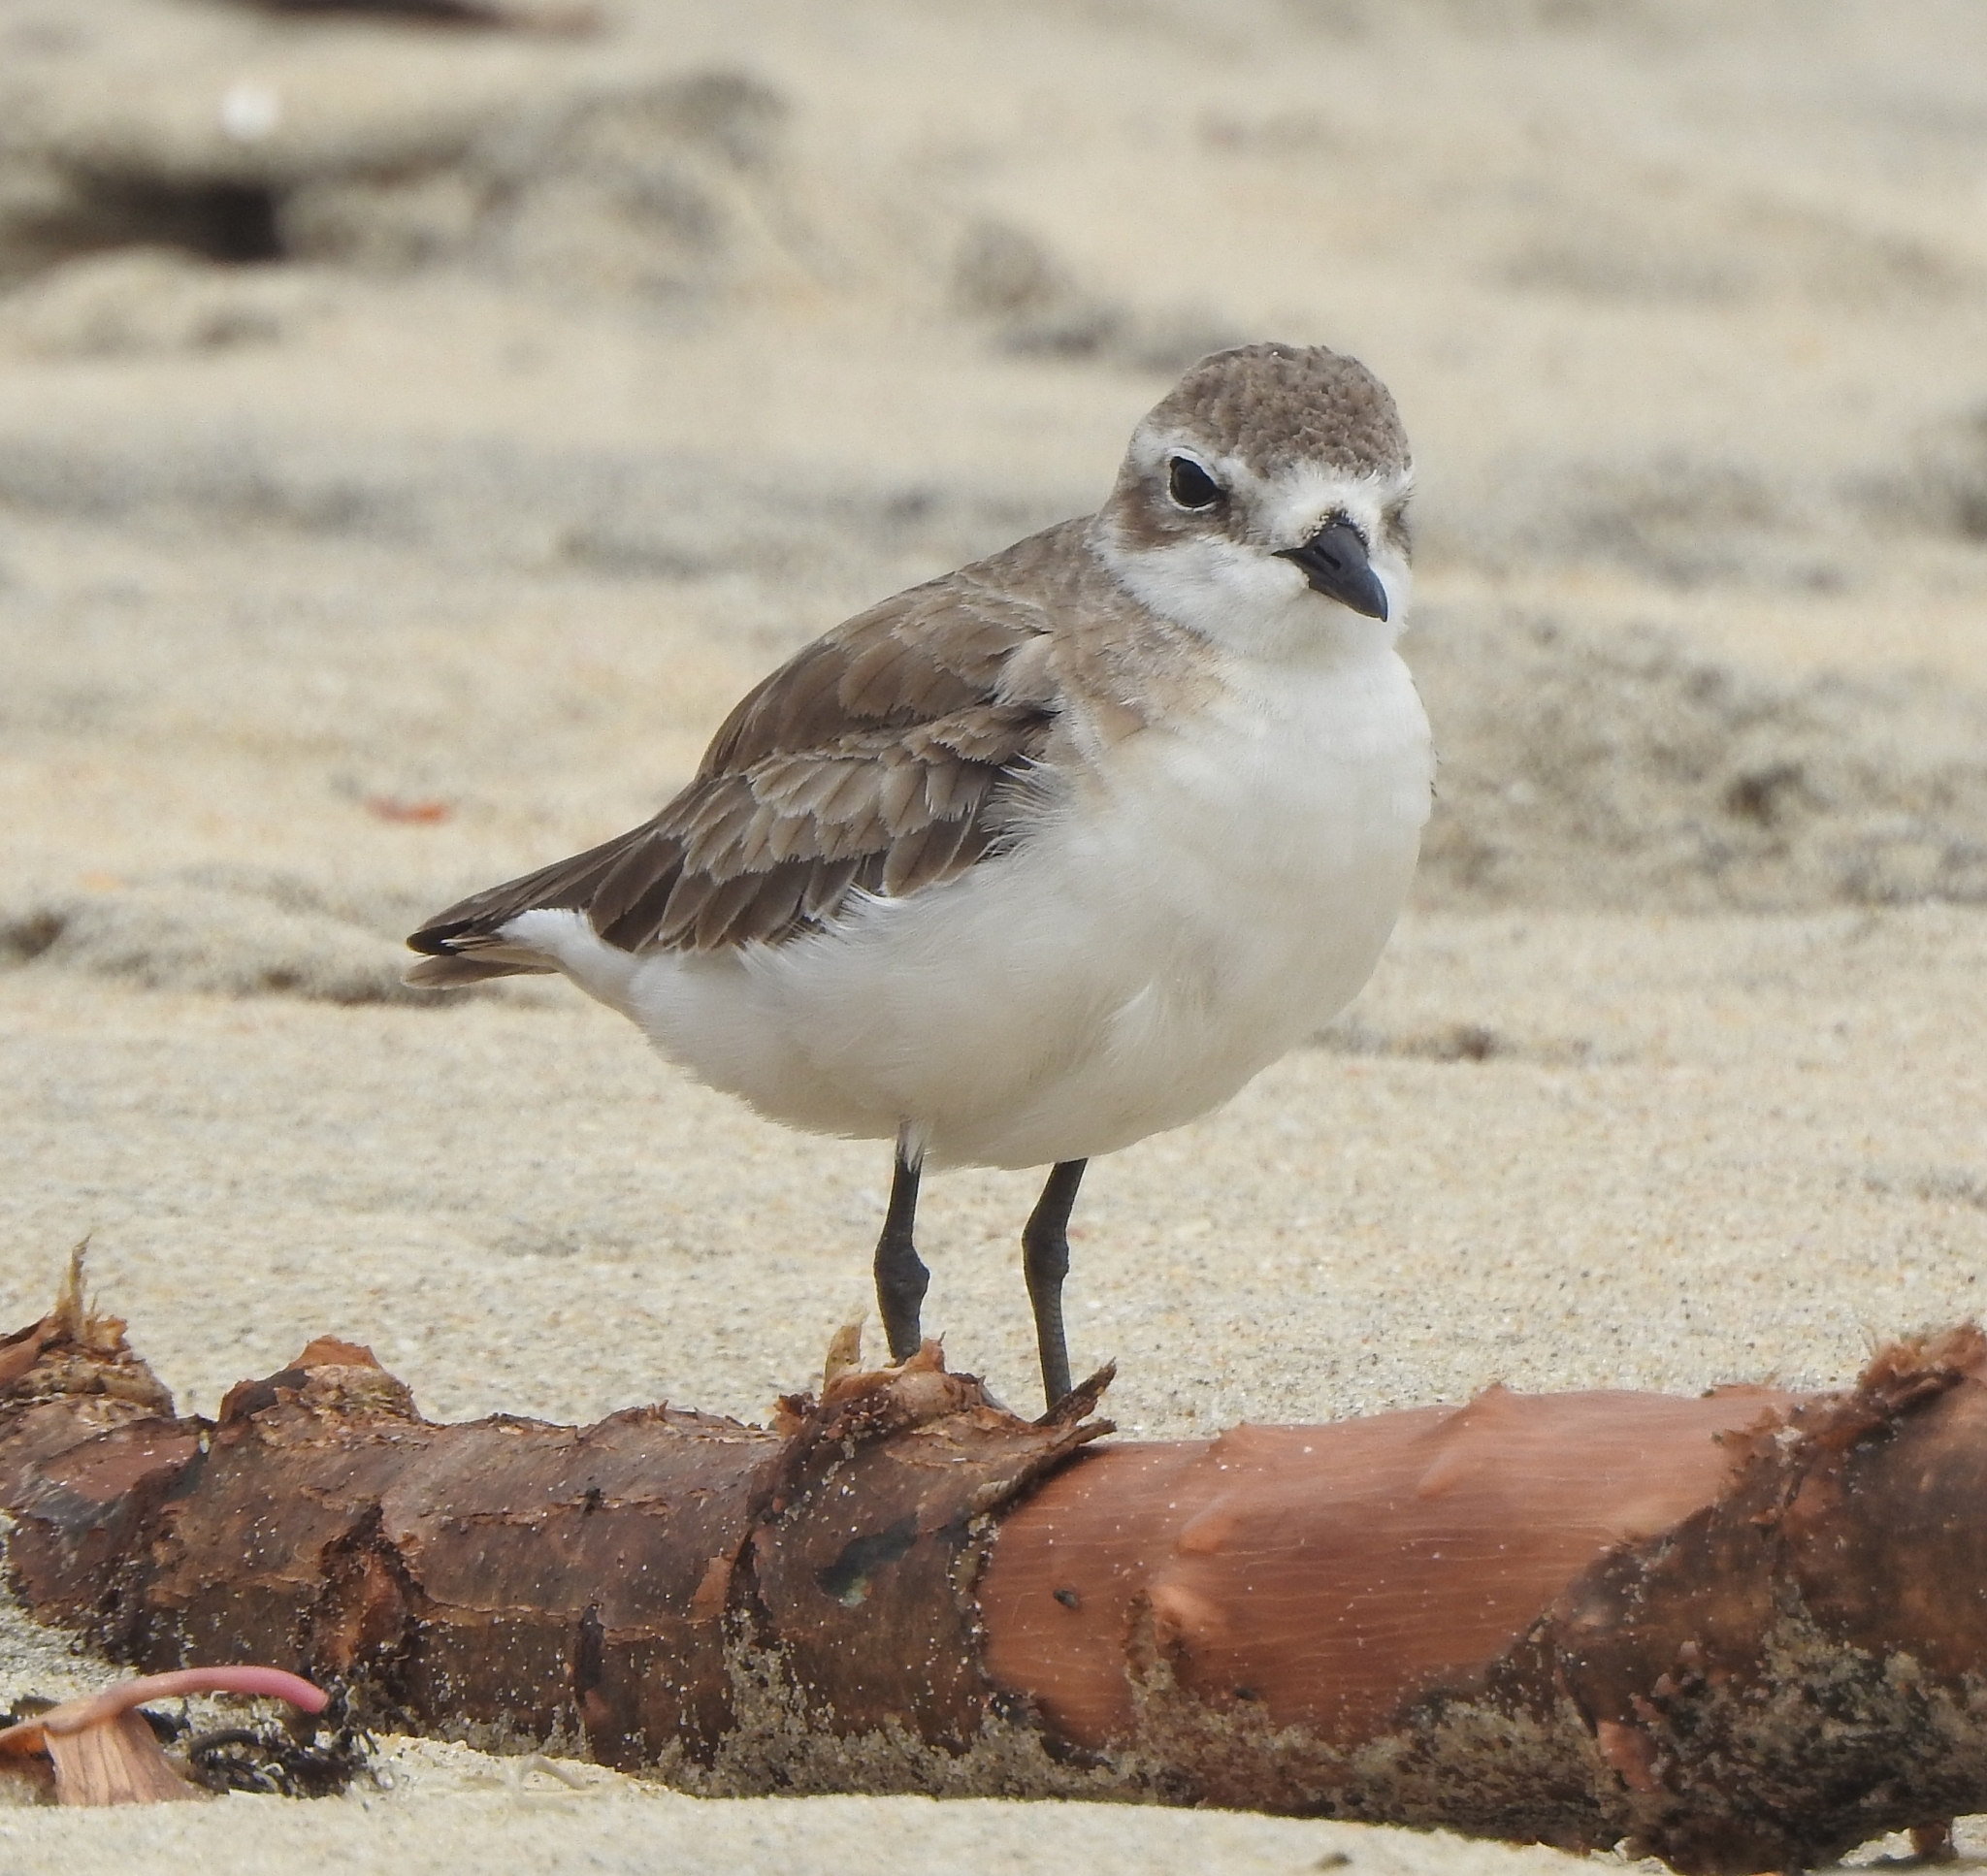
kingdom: Animalia
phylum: Chordata
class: Aves
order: Charadriiformes
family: Charadriidae
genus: Anarhynchus
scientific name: Anarhynchus
